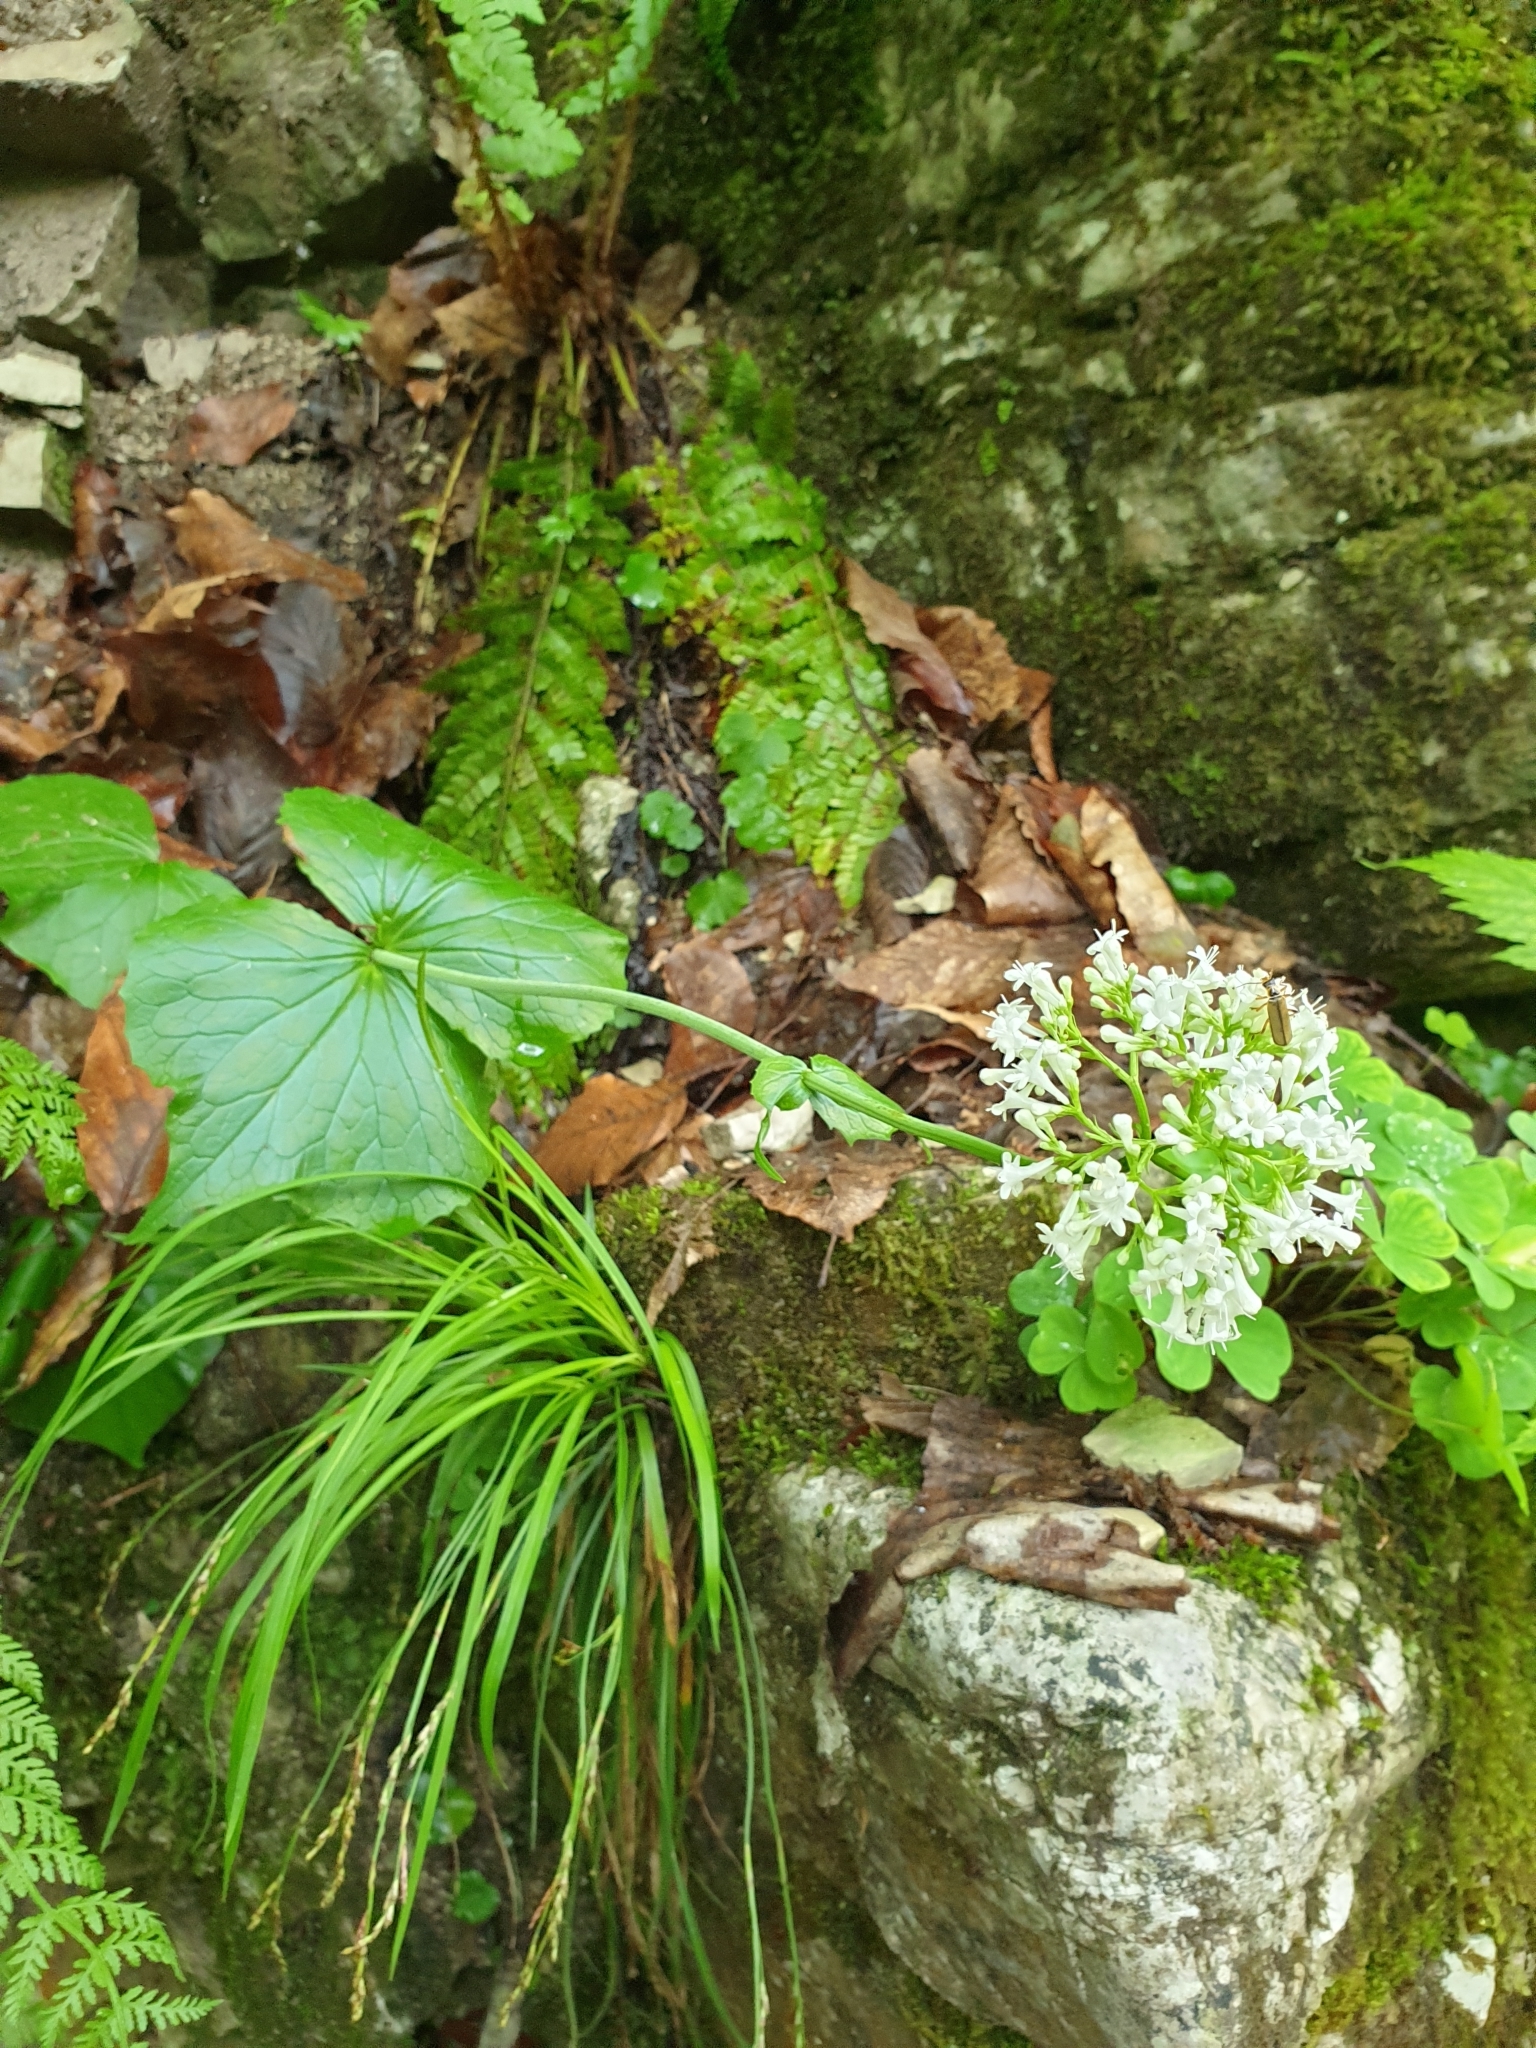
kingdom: Plantae
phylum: Tracheophyta
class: Magnoliopsida
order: Dipsacales
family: Caprifoliaceae
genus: Valeriana
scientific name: Valeriana alliariifolia
